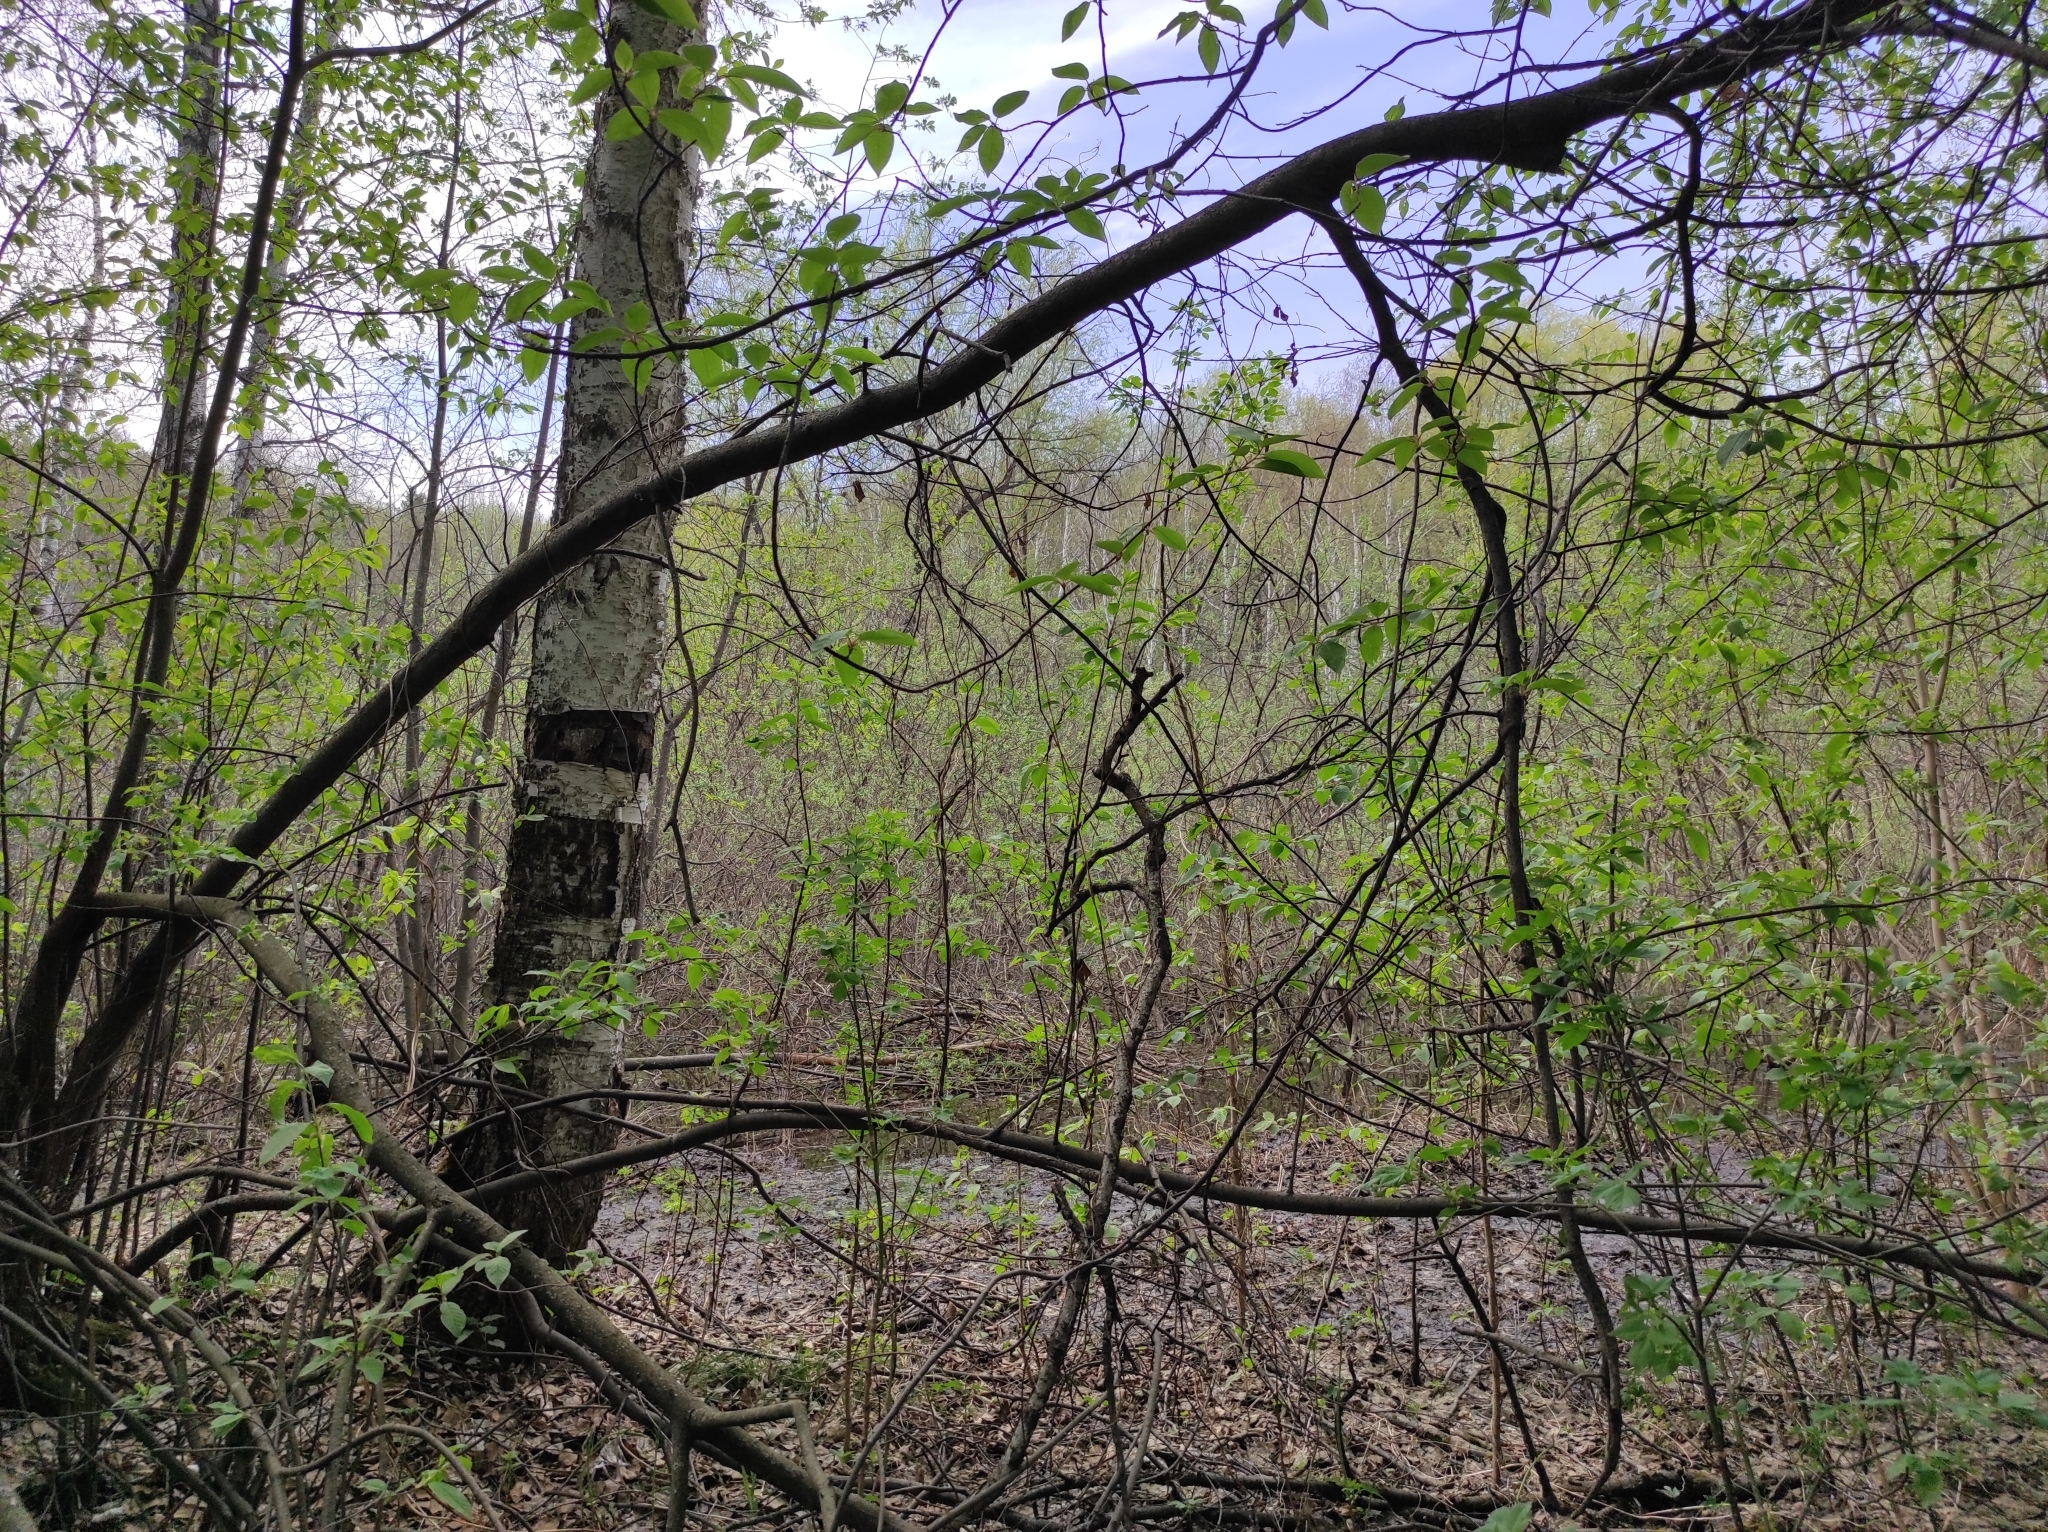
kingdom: Plantae
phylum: Tracheophyta
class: Magnoliopsida
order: Rosales
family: Rosaceae
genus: Prunus
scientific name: Prunus padus
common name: Bird cherry
